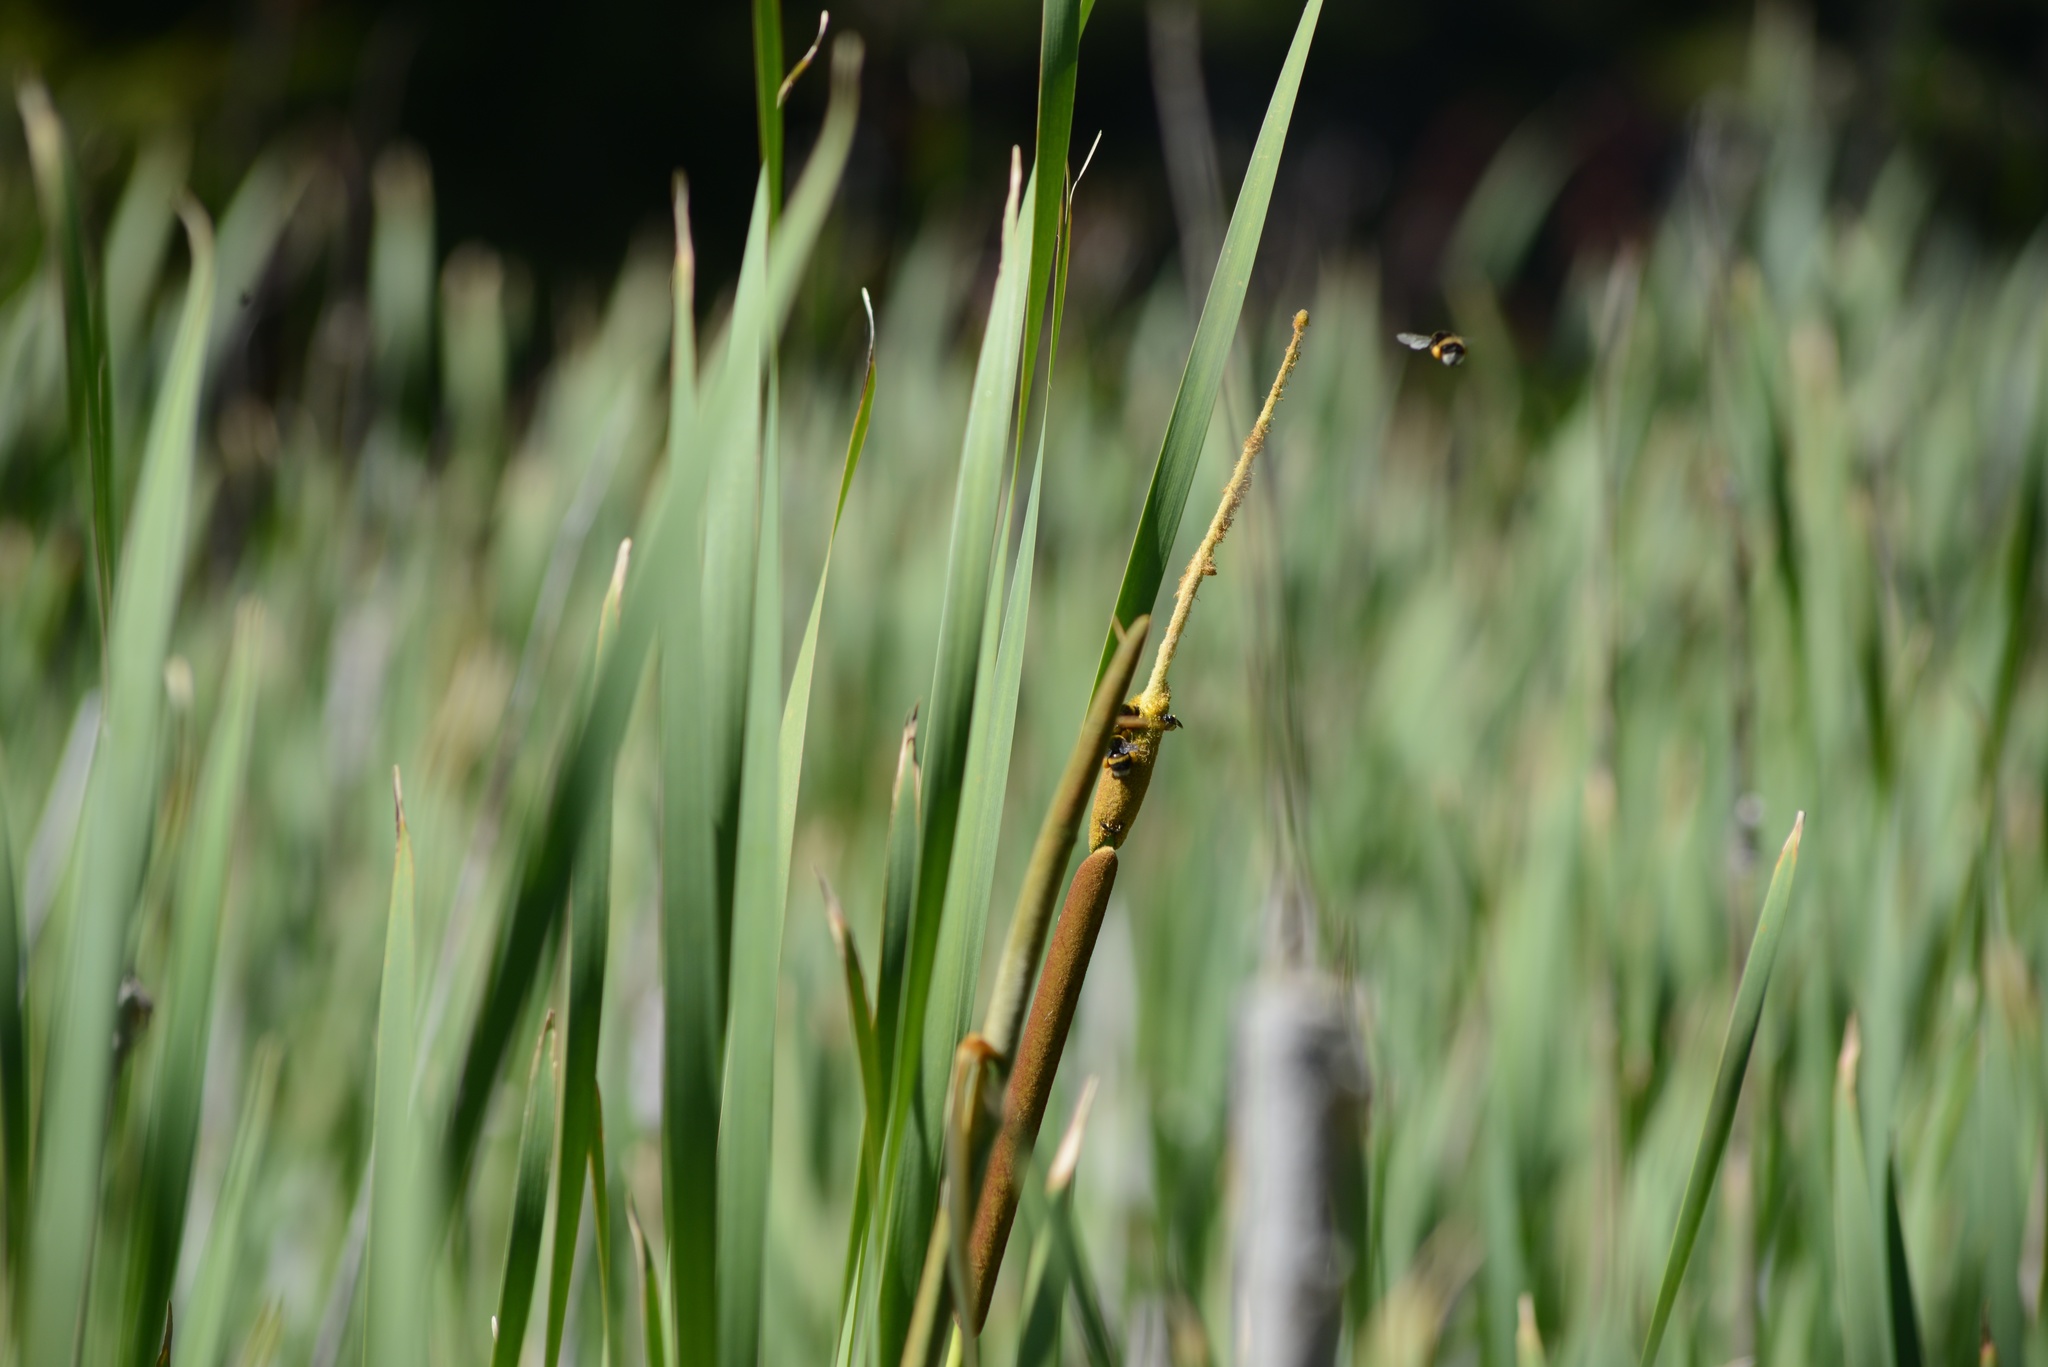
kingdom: Animalia
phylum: Arthropoda
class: Insecta
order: Hymenoptera
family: Apidae
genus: Bombus
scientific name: Bombus terrestris
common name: Buff-tailed bumblebee
